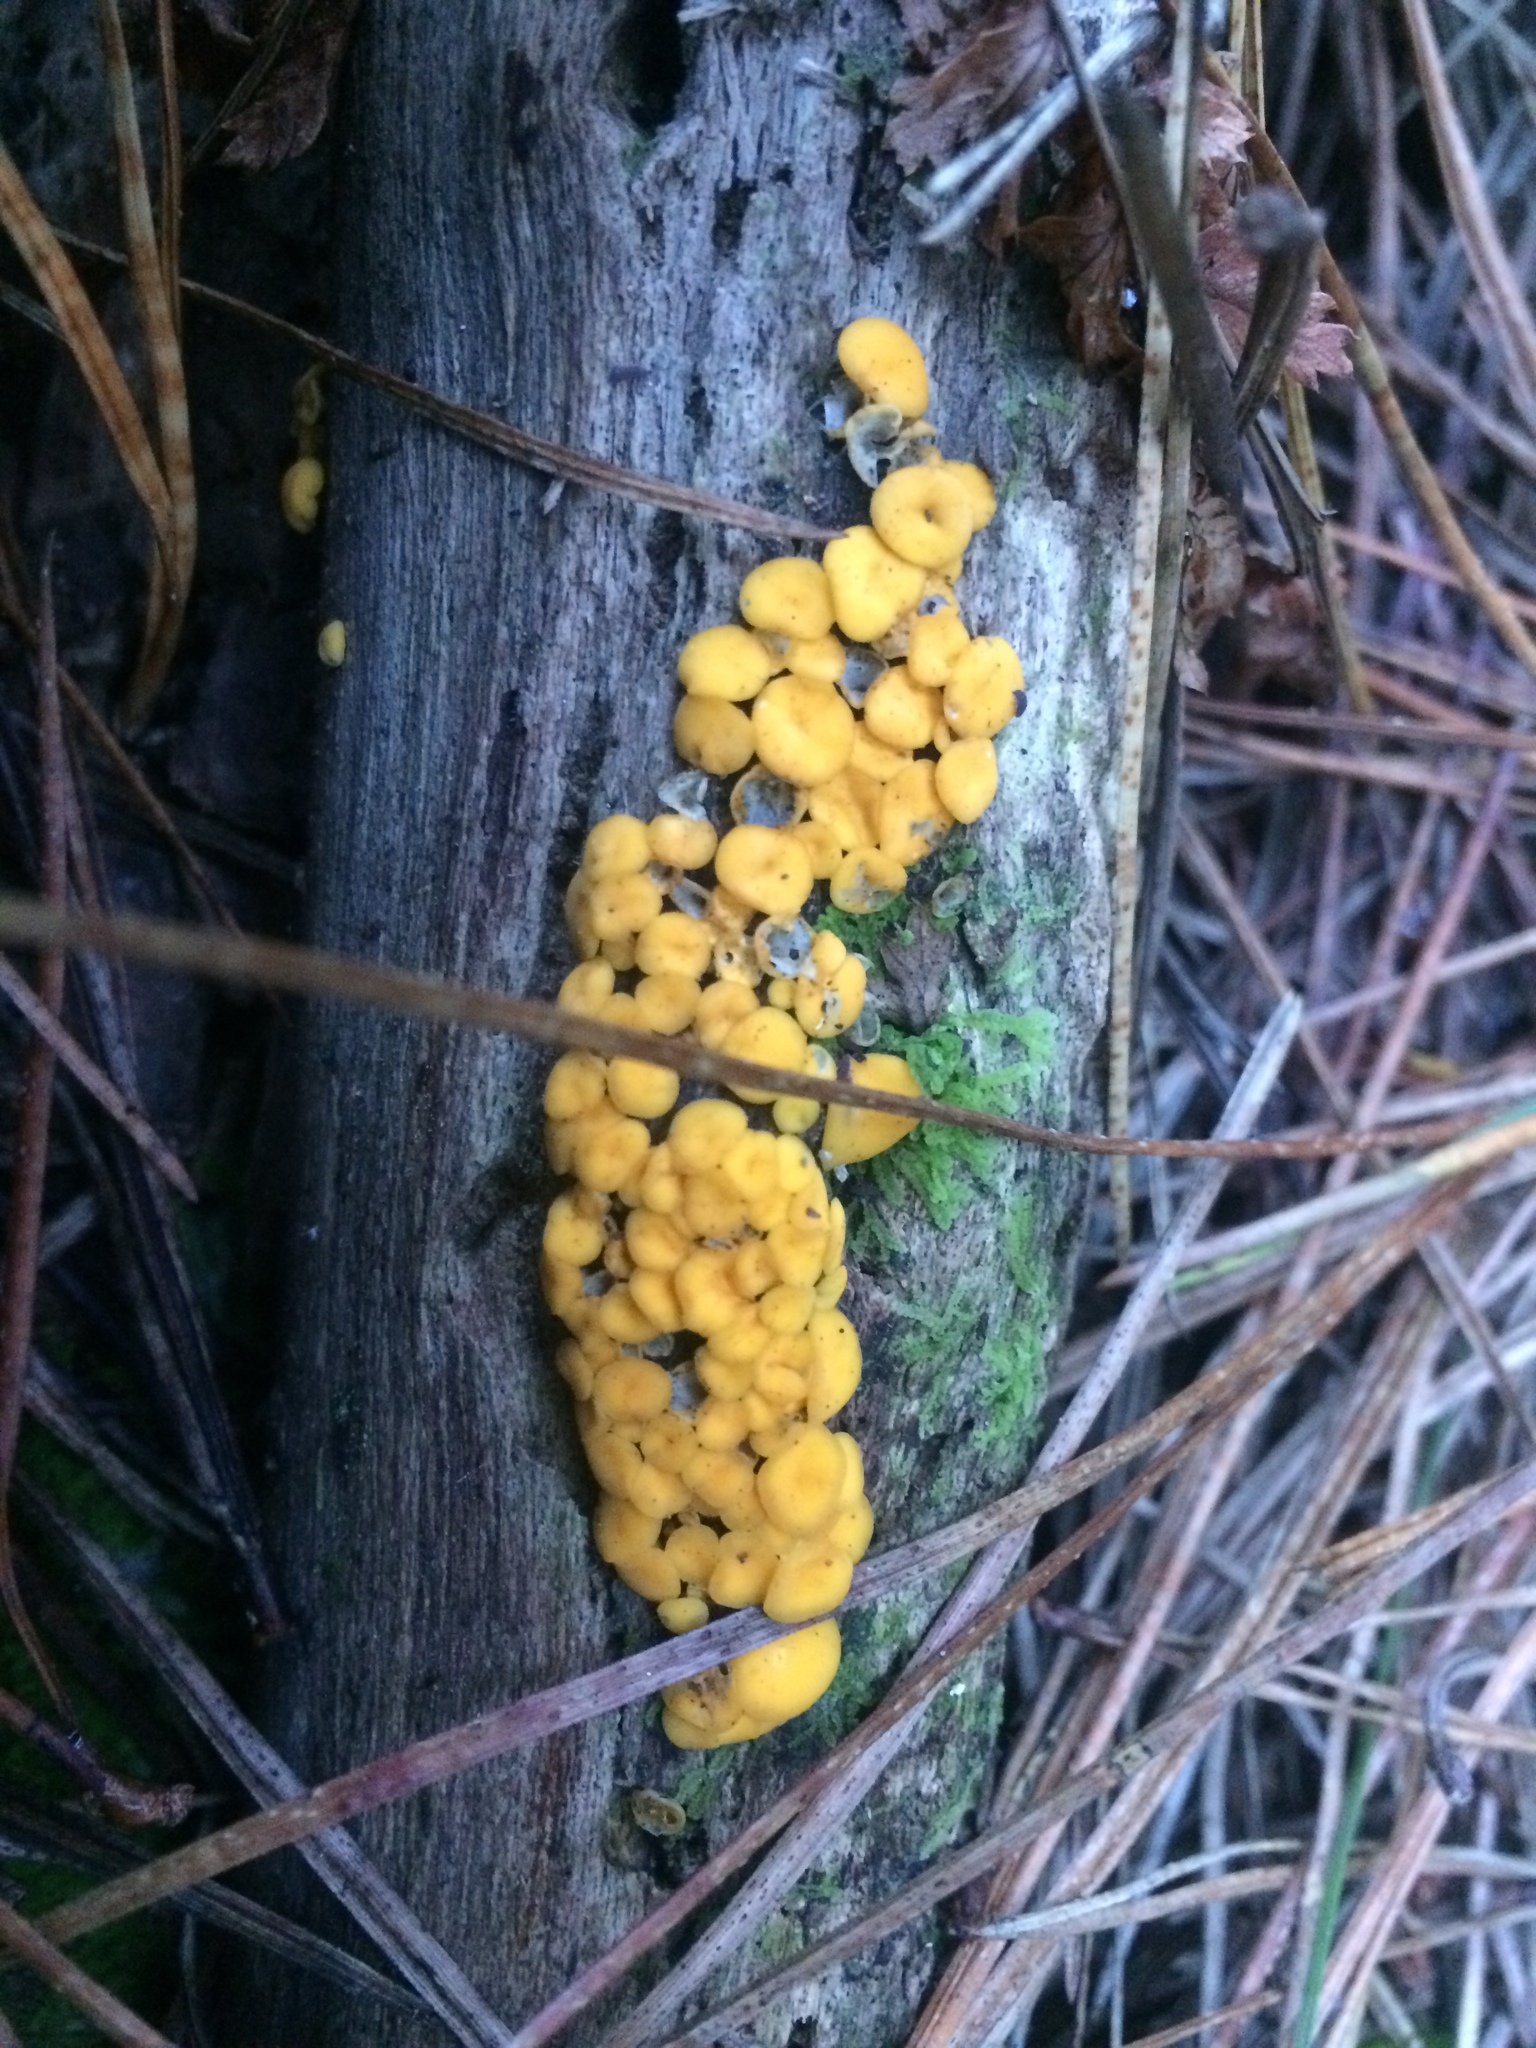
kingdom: Fungi
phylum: Ascomycota
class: Leotiomycetes
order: Helotiales
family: Pezizellaceae
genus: Calycina
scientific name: Calycina citrina
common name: Yellow fairy cups
